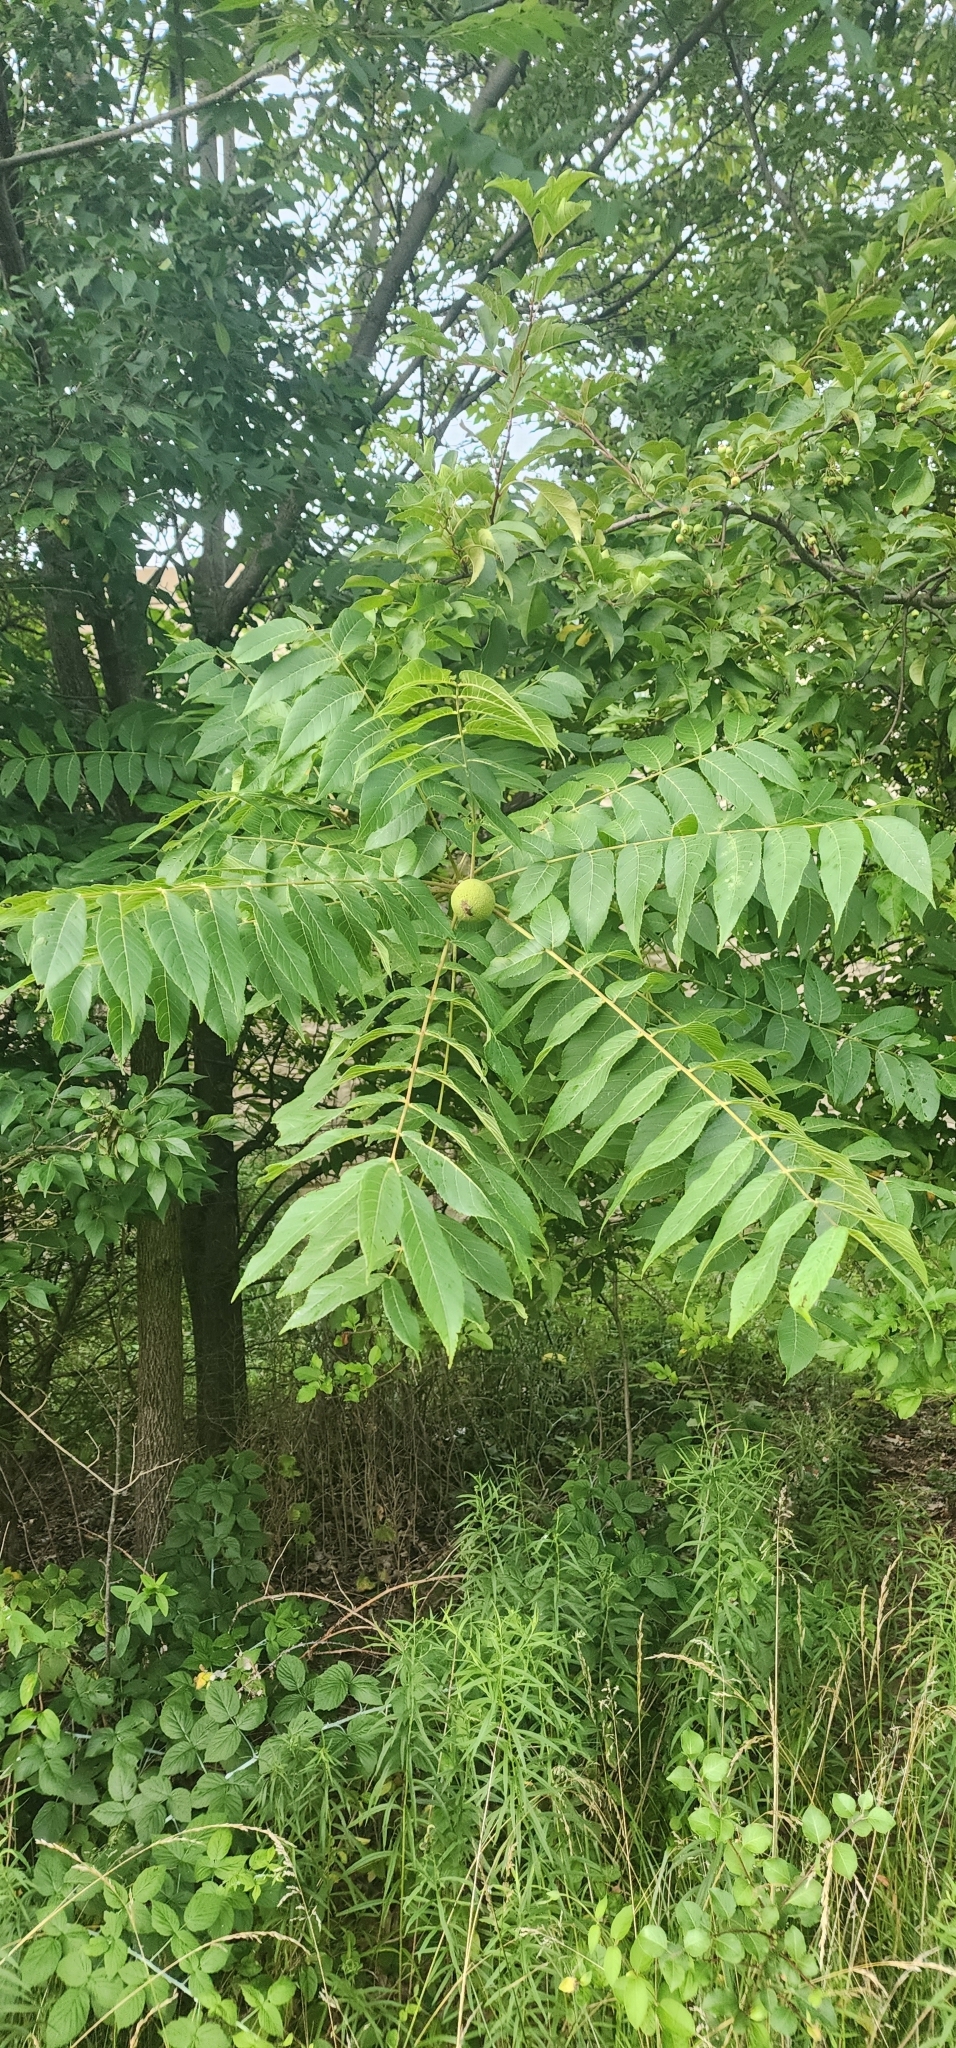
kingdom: Plantae
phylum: Tracheophyta
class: Magnoliopsida
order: Fagales
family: Juglandaceae
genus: Juglans
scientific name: Juglans nigra
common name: Black walnut
